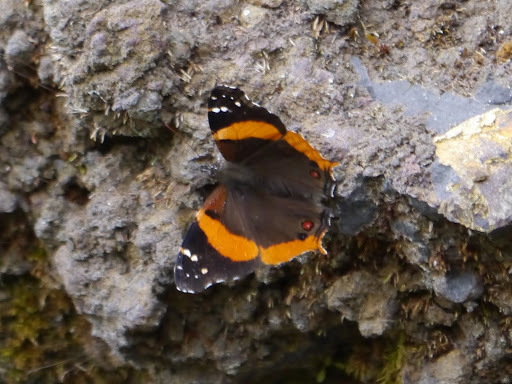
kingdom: Animalia
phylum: Arthropoda
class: Insecta
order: Lepidoptera
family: Nymphalidae
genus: Antanartia
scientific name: Antanartia dimorphica
